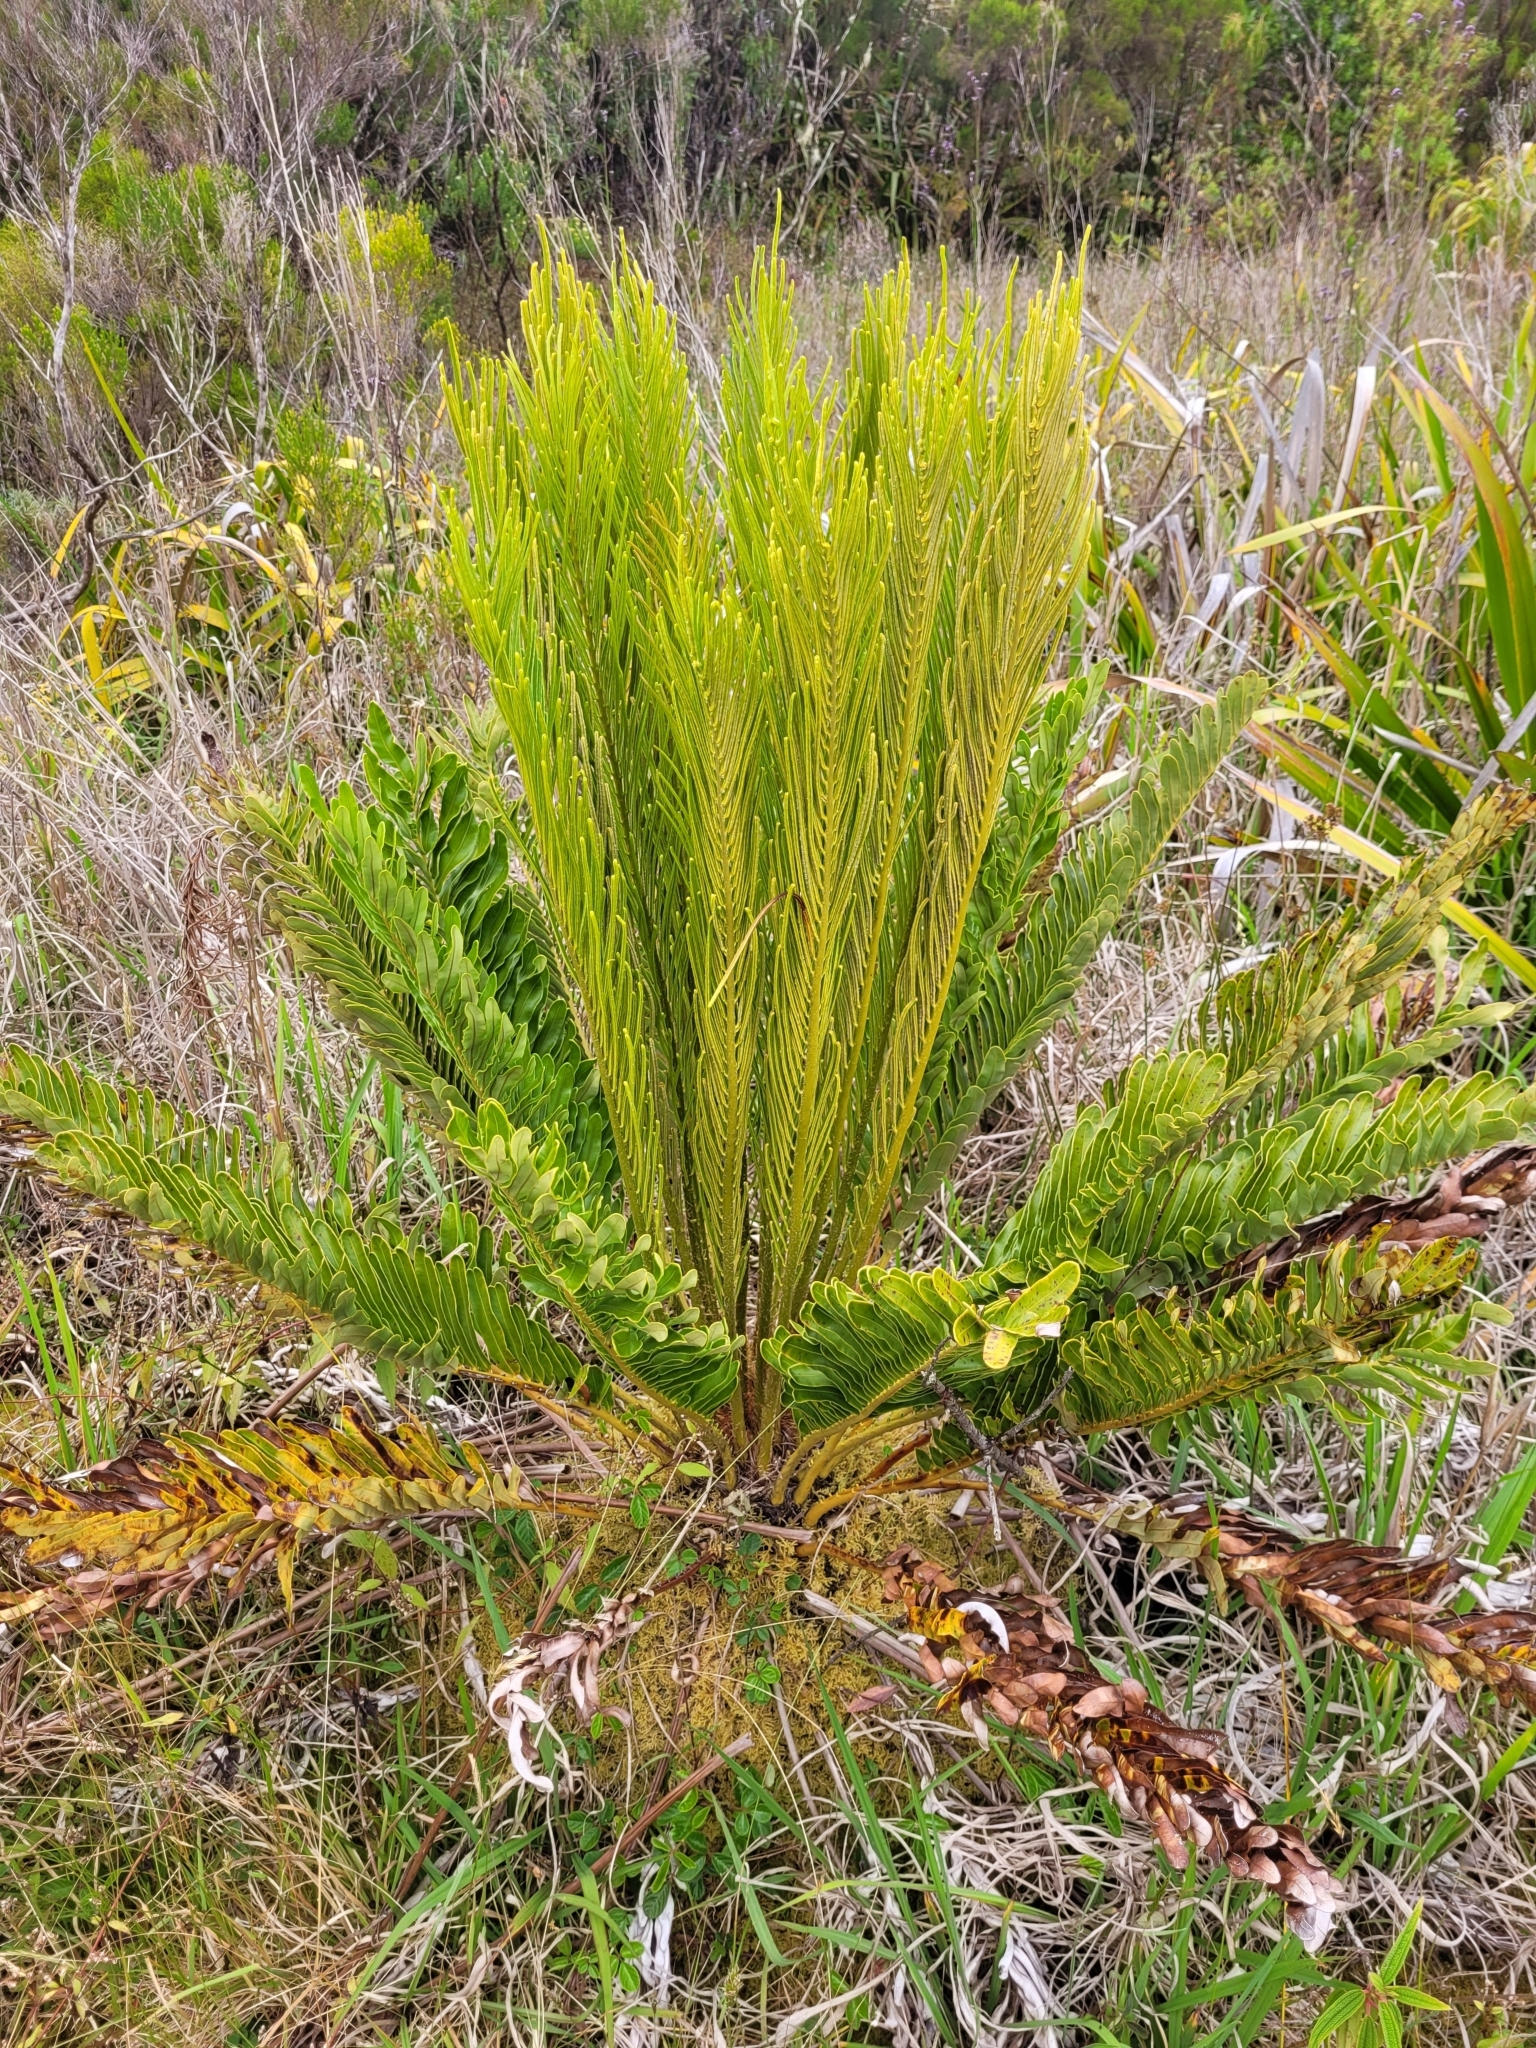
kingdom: Plantae
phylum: Tracheophyta
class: Polypodiopsida
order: Polypodiales
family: Blechnaceae
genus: Lomariocycas
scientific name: Lomariocycas tabularis
